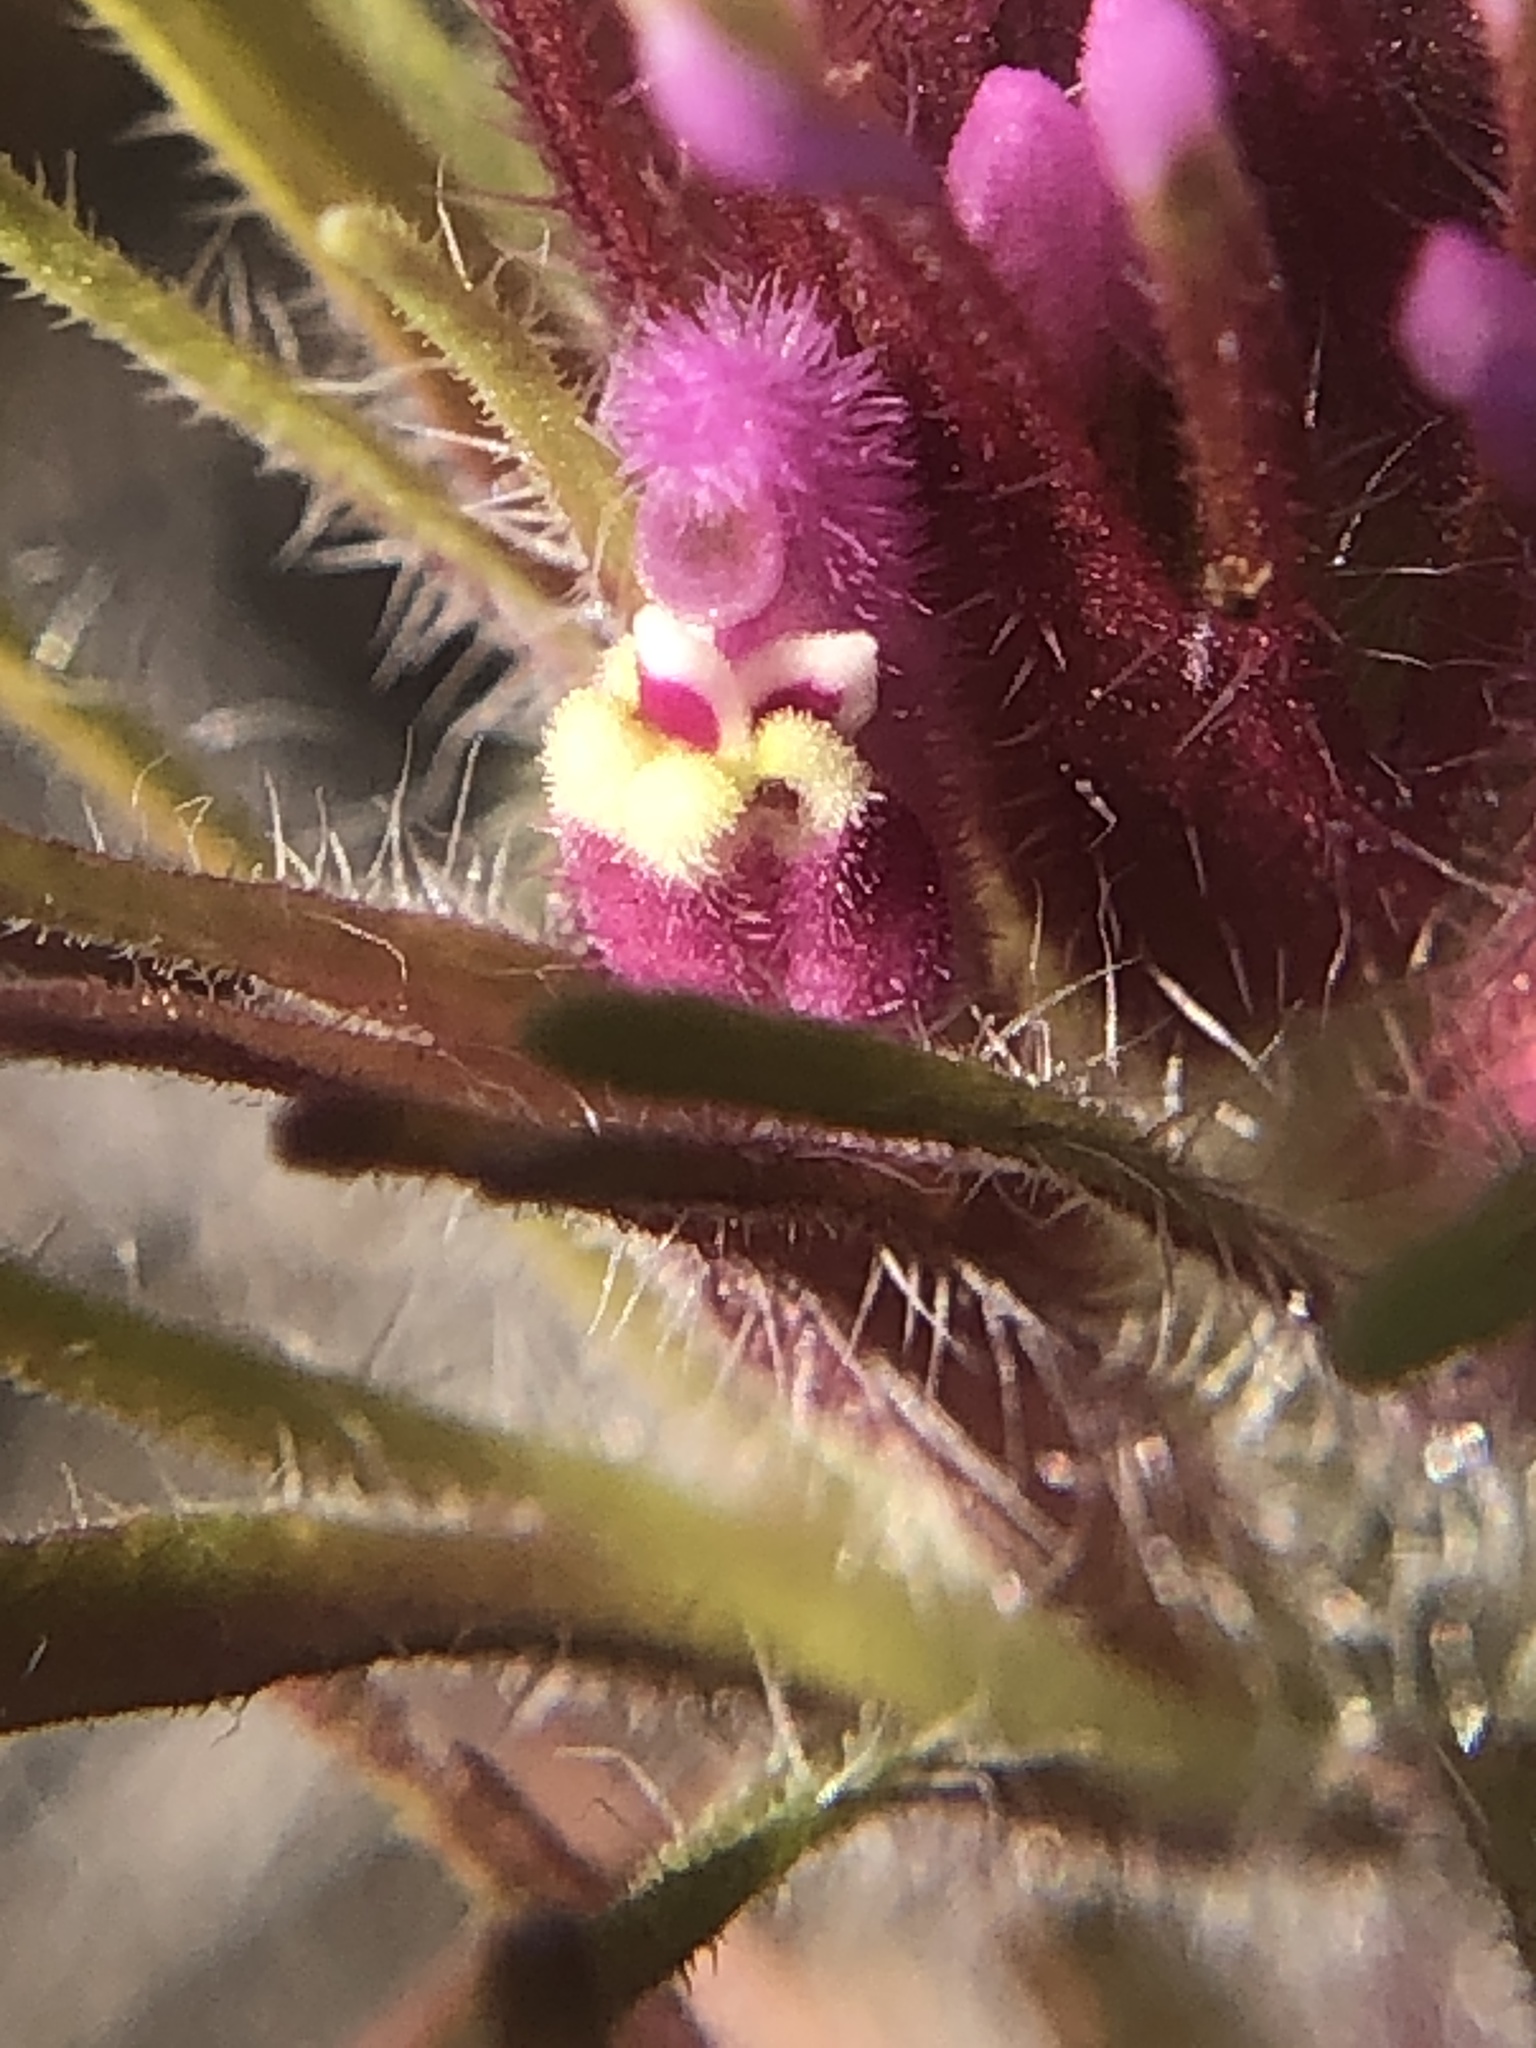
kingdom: Plantae
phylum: Tracheophyta
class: Magnoliopsida
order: Lamiales
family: Orobanchaceae
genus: Castilleja
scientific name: Castilleja exserta
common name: Purple owl-clover
